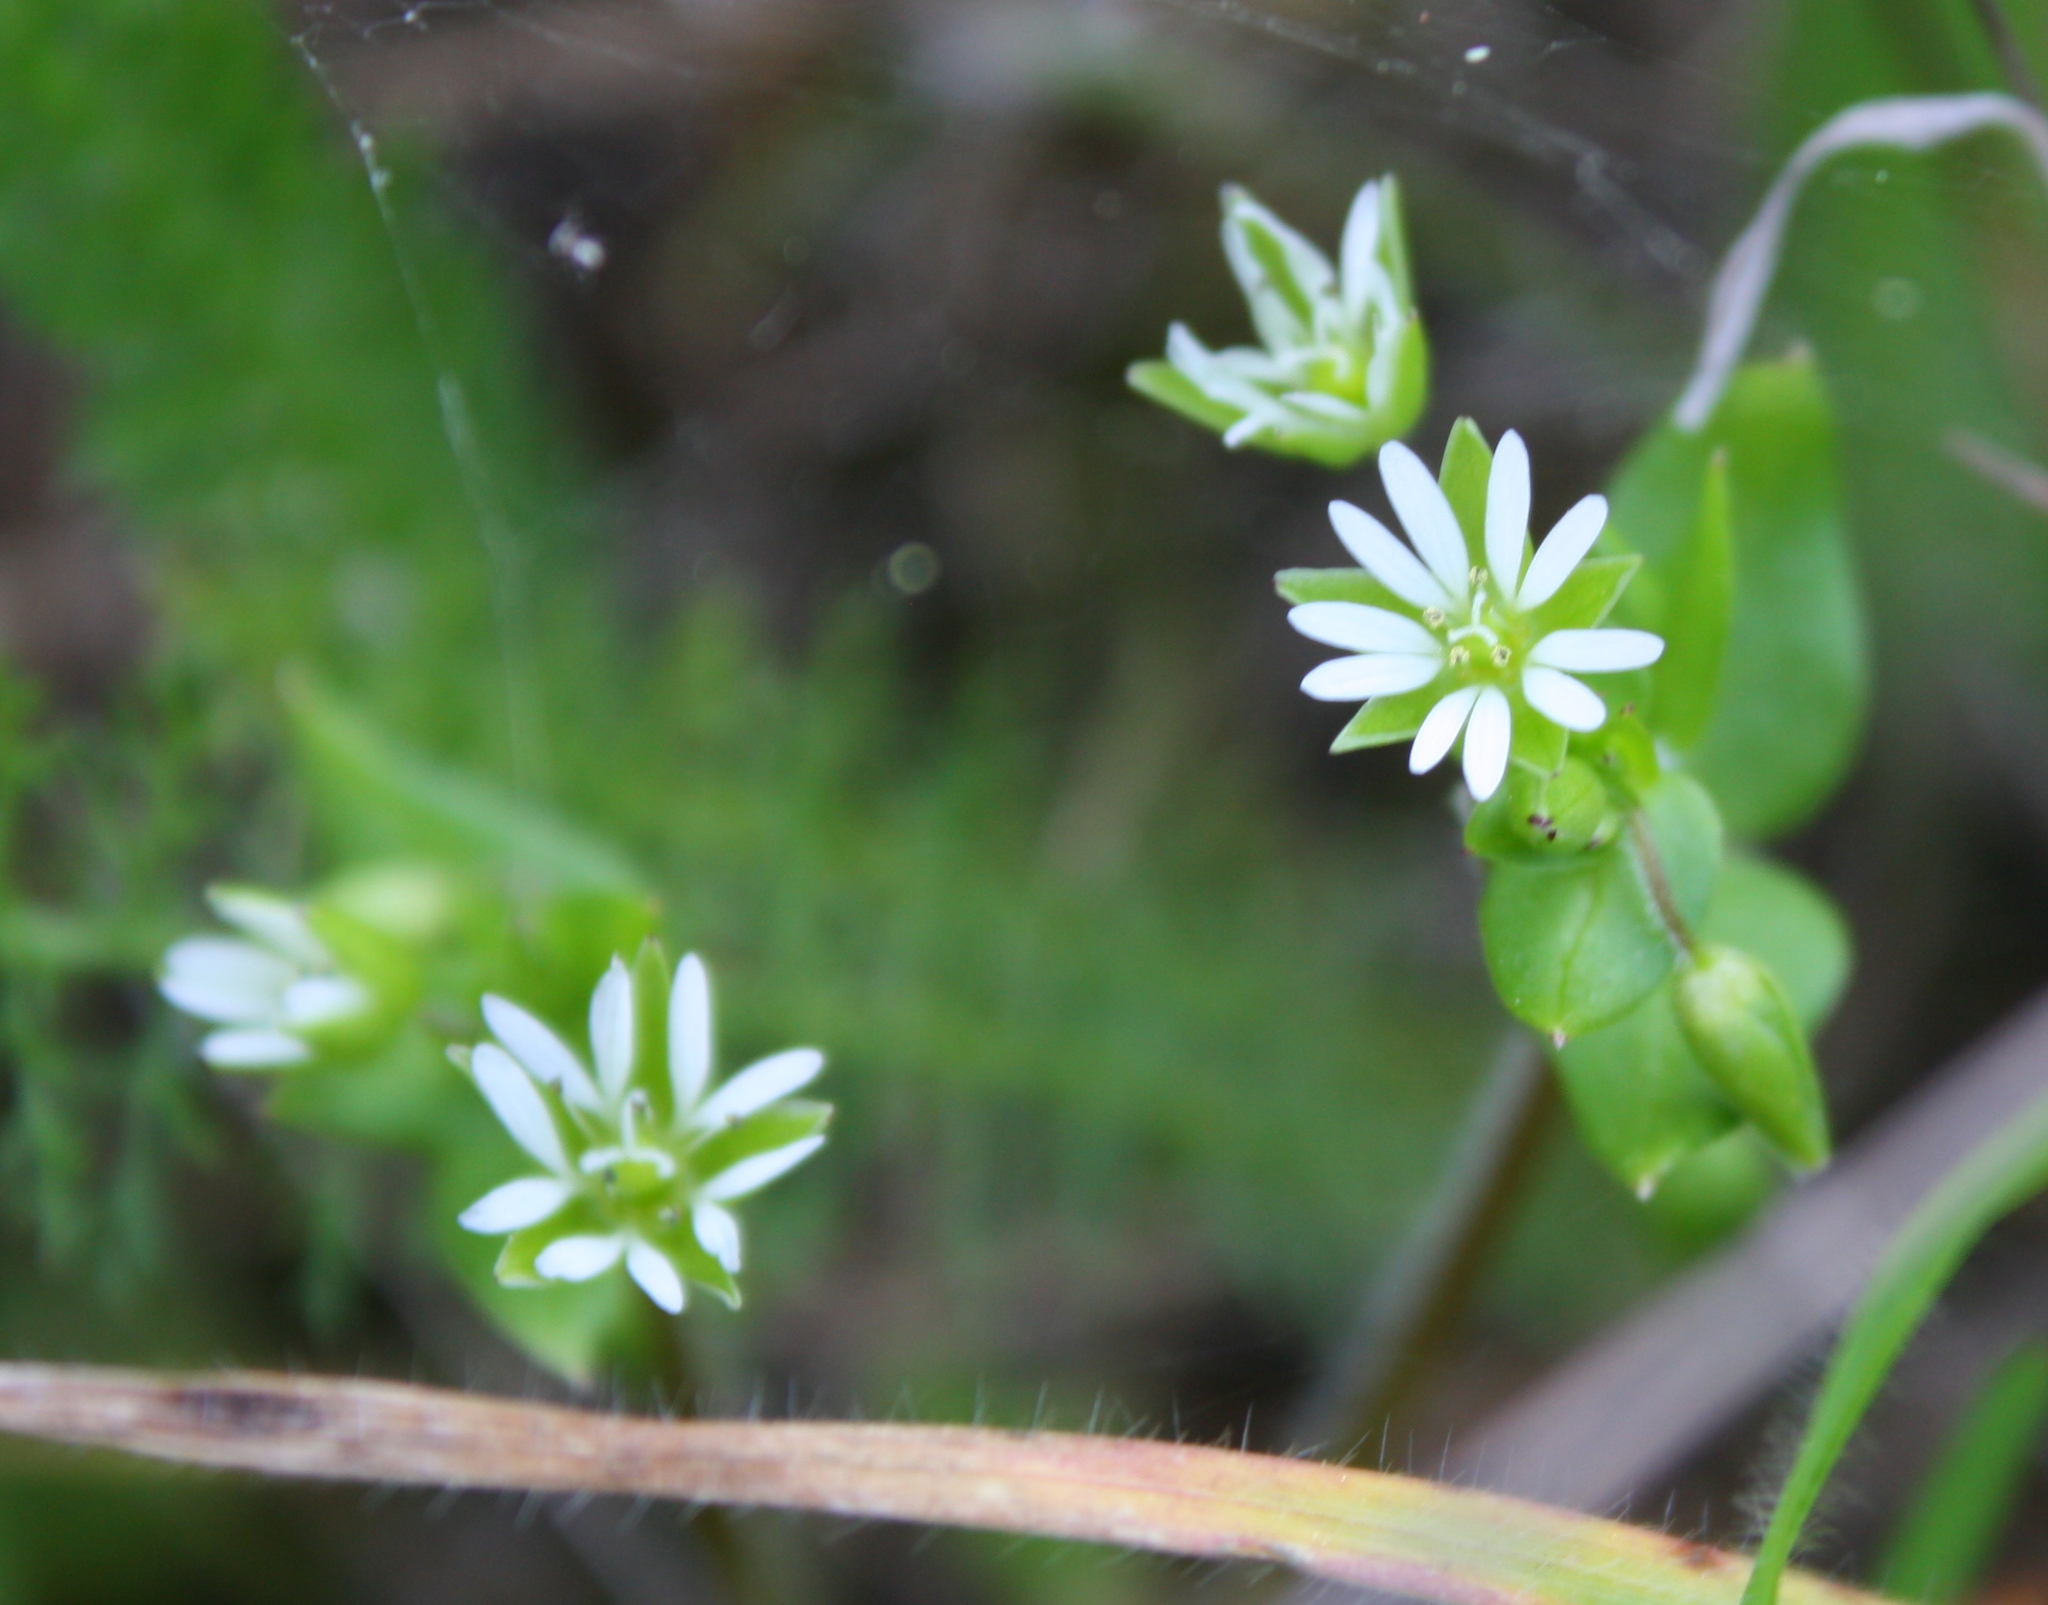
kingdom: Plantae
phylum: Tracheophyta
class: Magnoliopsida
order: Caryophyllales
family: Caryophyllaceae
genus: Stellaria
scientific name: Stellaria media
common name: Common chickweed
